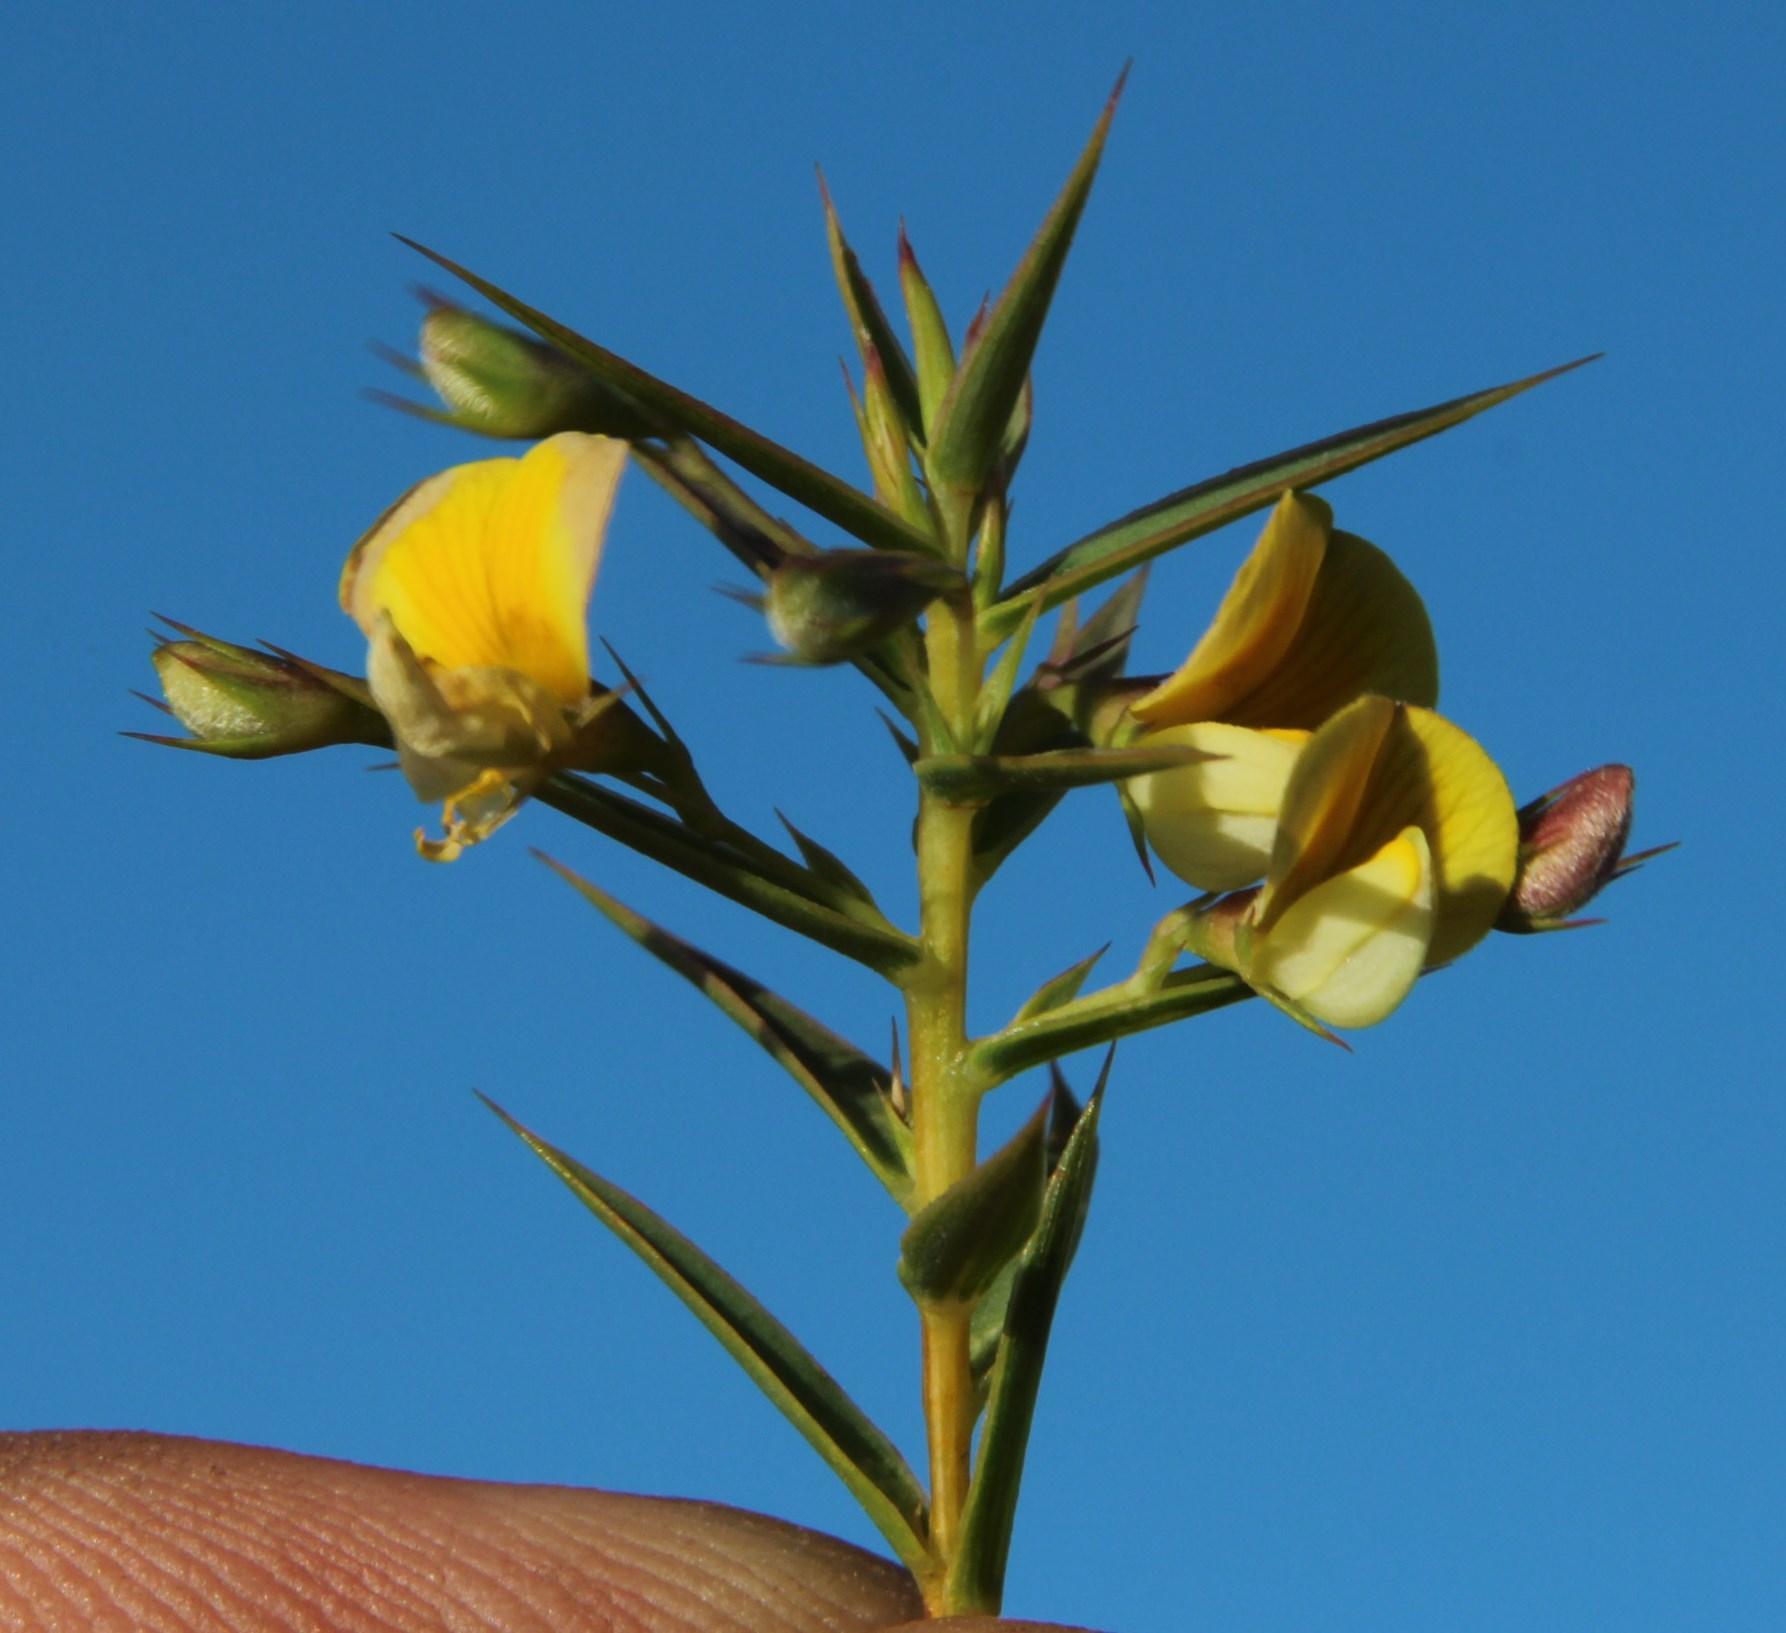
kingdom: Plantae
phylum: Tracheophyta
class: Magnoliopsida
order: Fabales
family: Fabaceae
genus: Aspalathus
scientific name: Aspalathus alpestris
